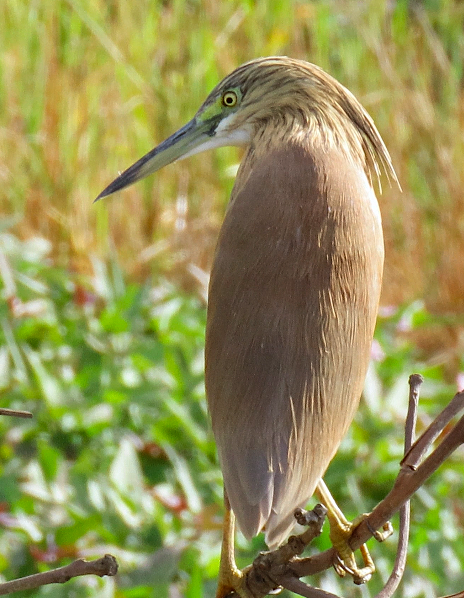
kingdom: Animalia
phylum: Chordata
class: Aves
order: Pelecaniformes
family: Ardeidae
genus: Ardeola
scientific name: Ardeola ralloides
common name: Squacco heron
